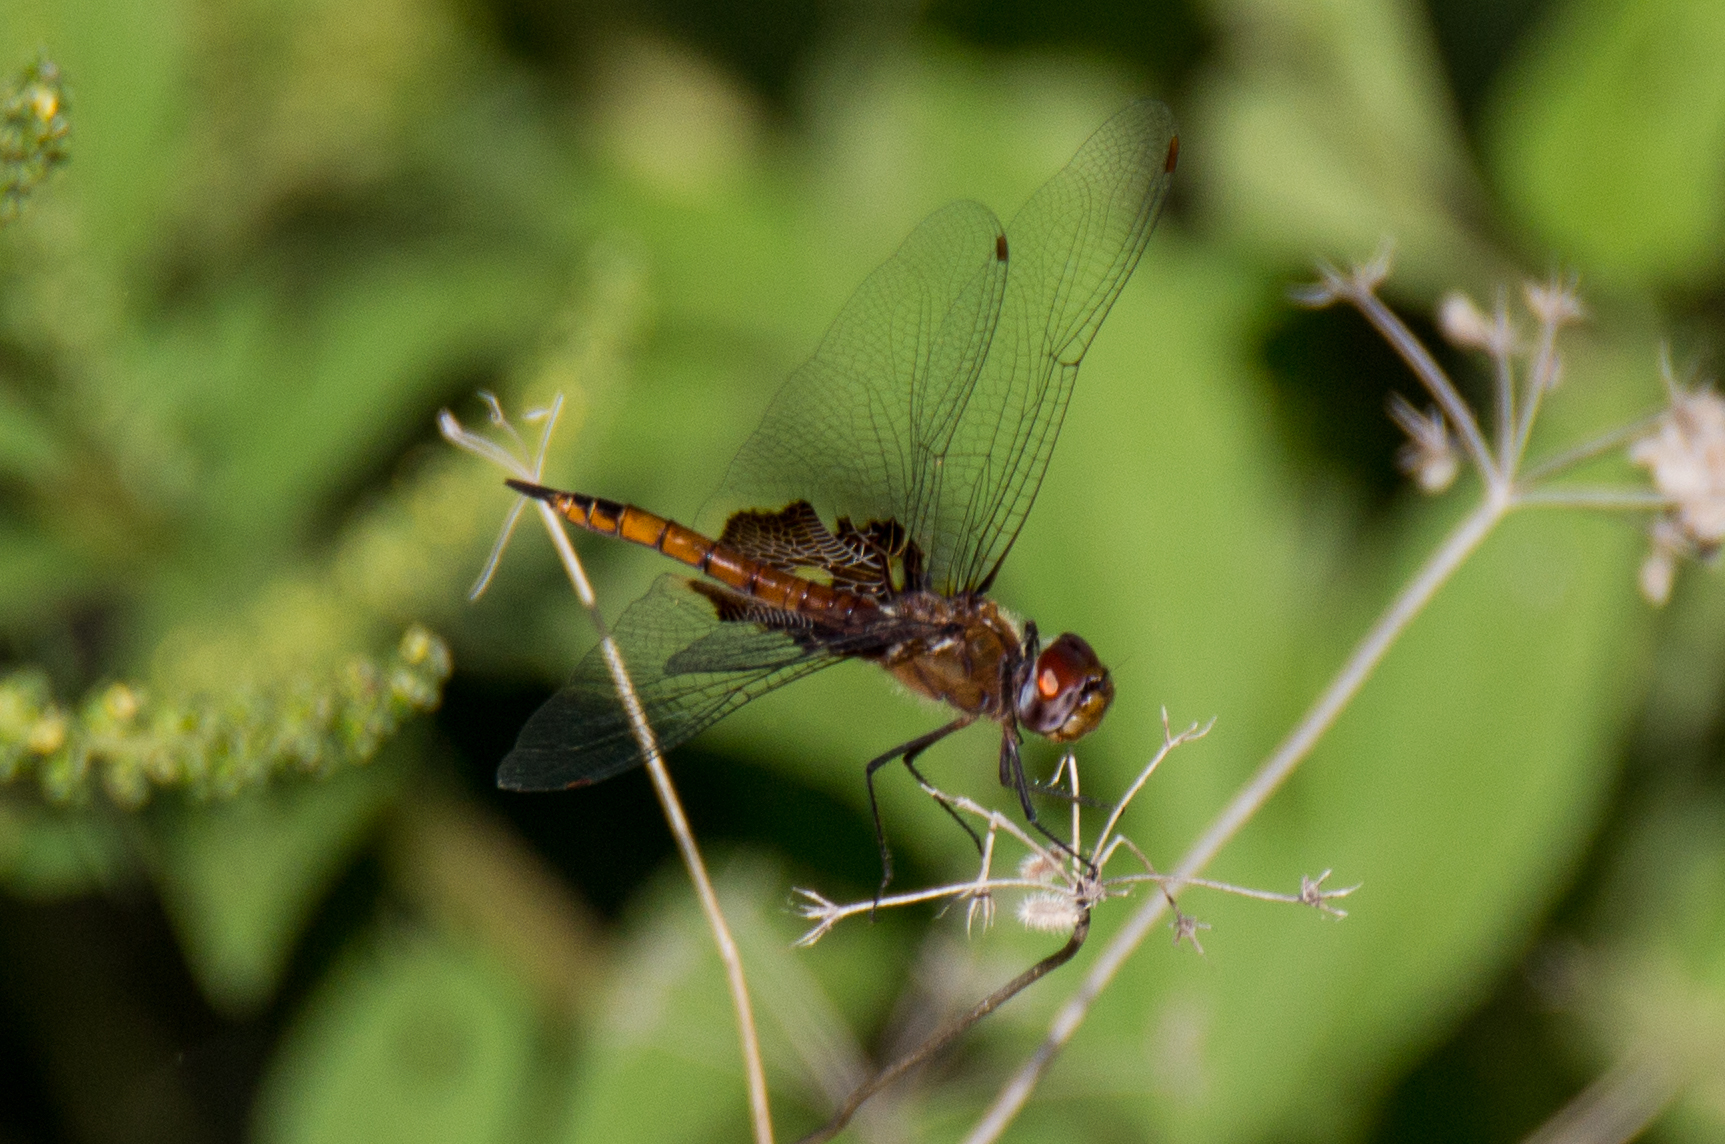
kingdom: Animalia
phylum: Arthropoda
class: Insecta
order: Odonata
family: Libellulidae
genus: Tramea
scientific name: Tramea onusta
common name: Red saddlebags
